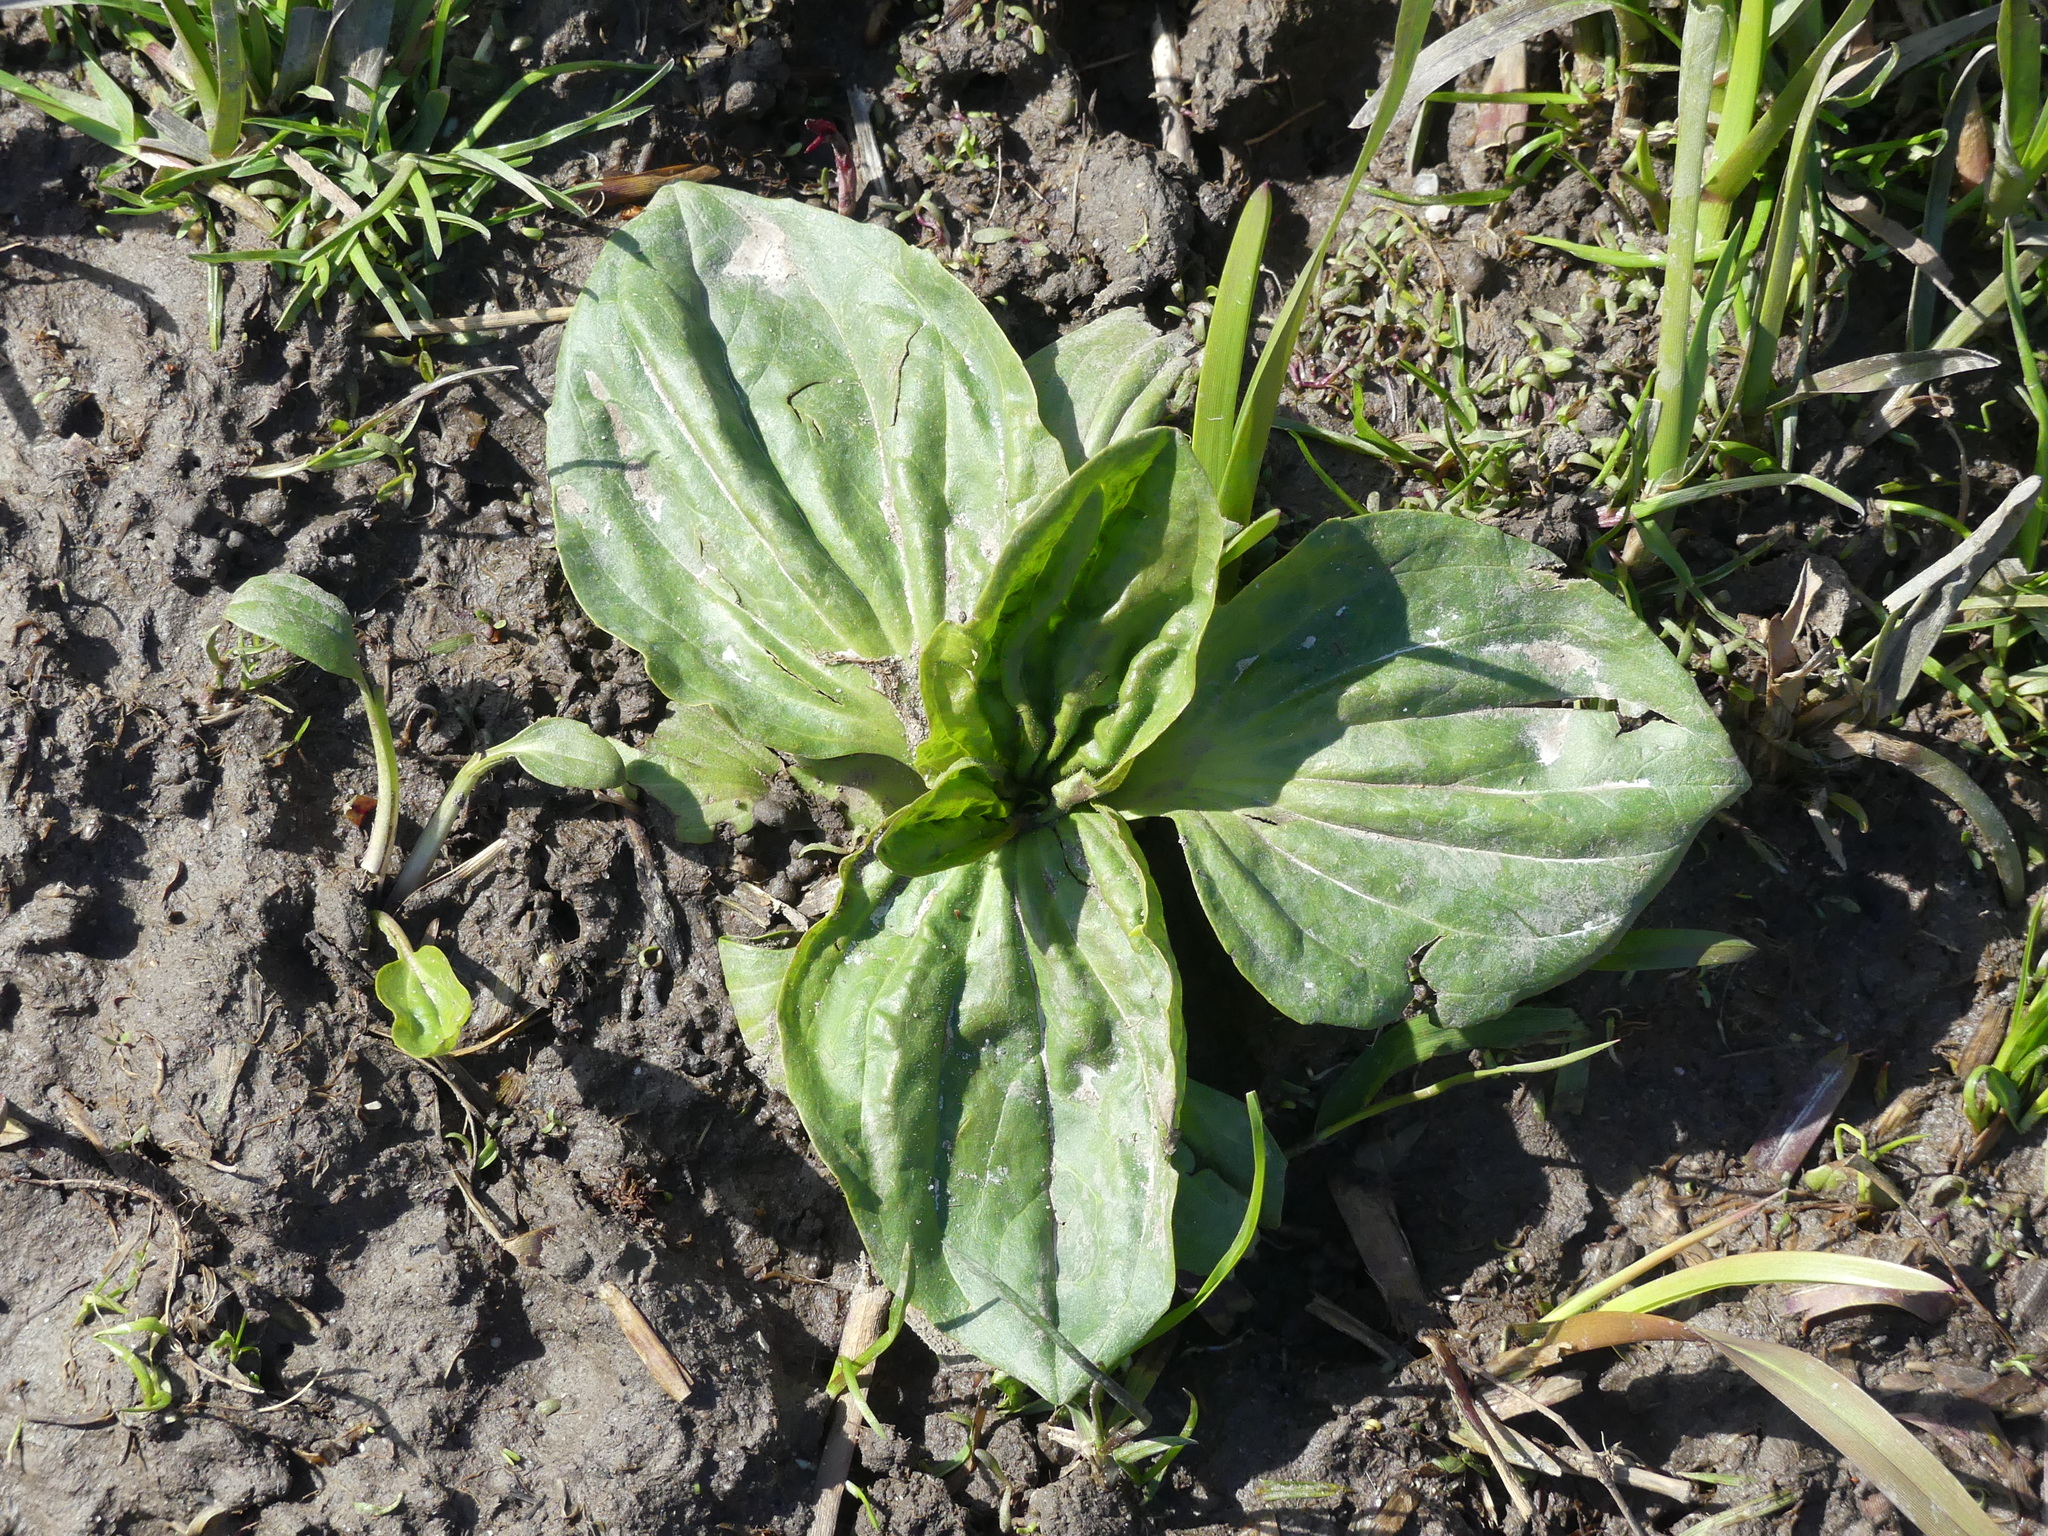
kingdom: Plantae
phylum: Tracheophyta
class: Magnoliopsida
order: Lamiales
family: Plantaginaceae
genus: Plantago
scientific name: Plantago major
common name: Common plantain
